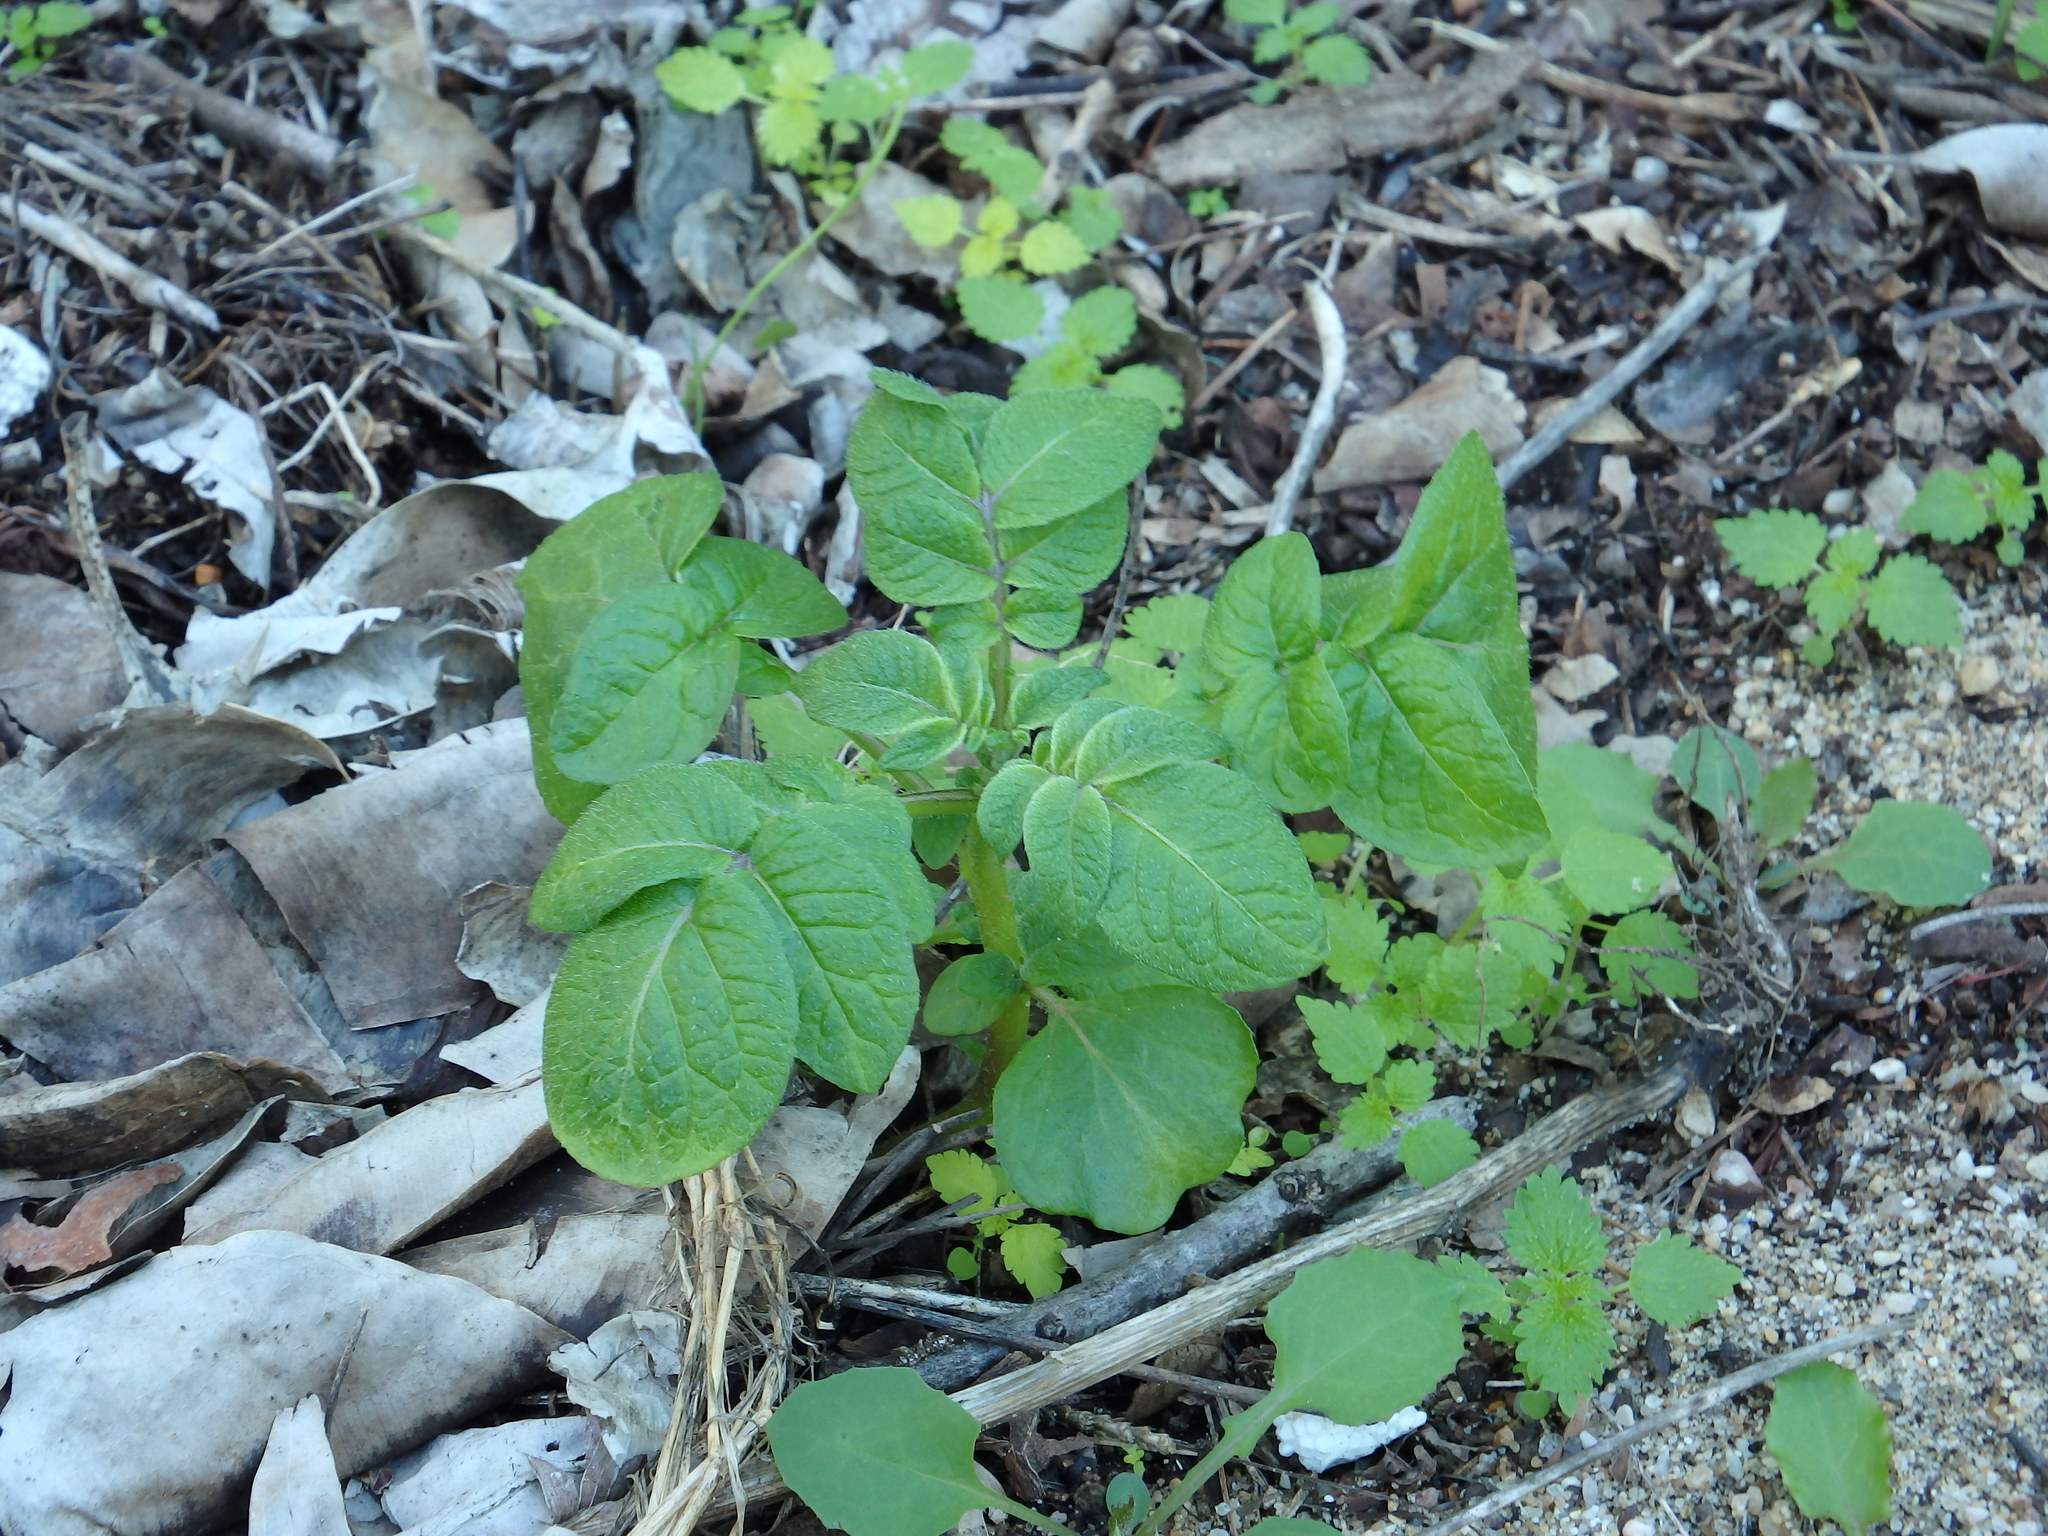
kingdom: Plantae
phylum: Tracheophyta
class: Magnoliopsida
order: Solanales
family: Solanaceae
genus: Solanum
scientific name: Solanum tuberosum
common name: Potato
